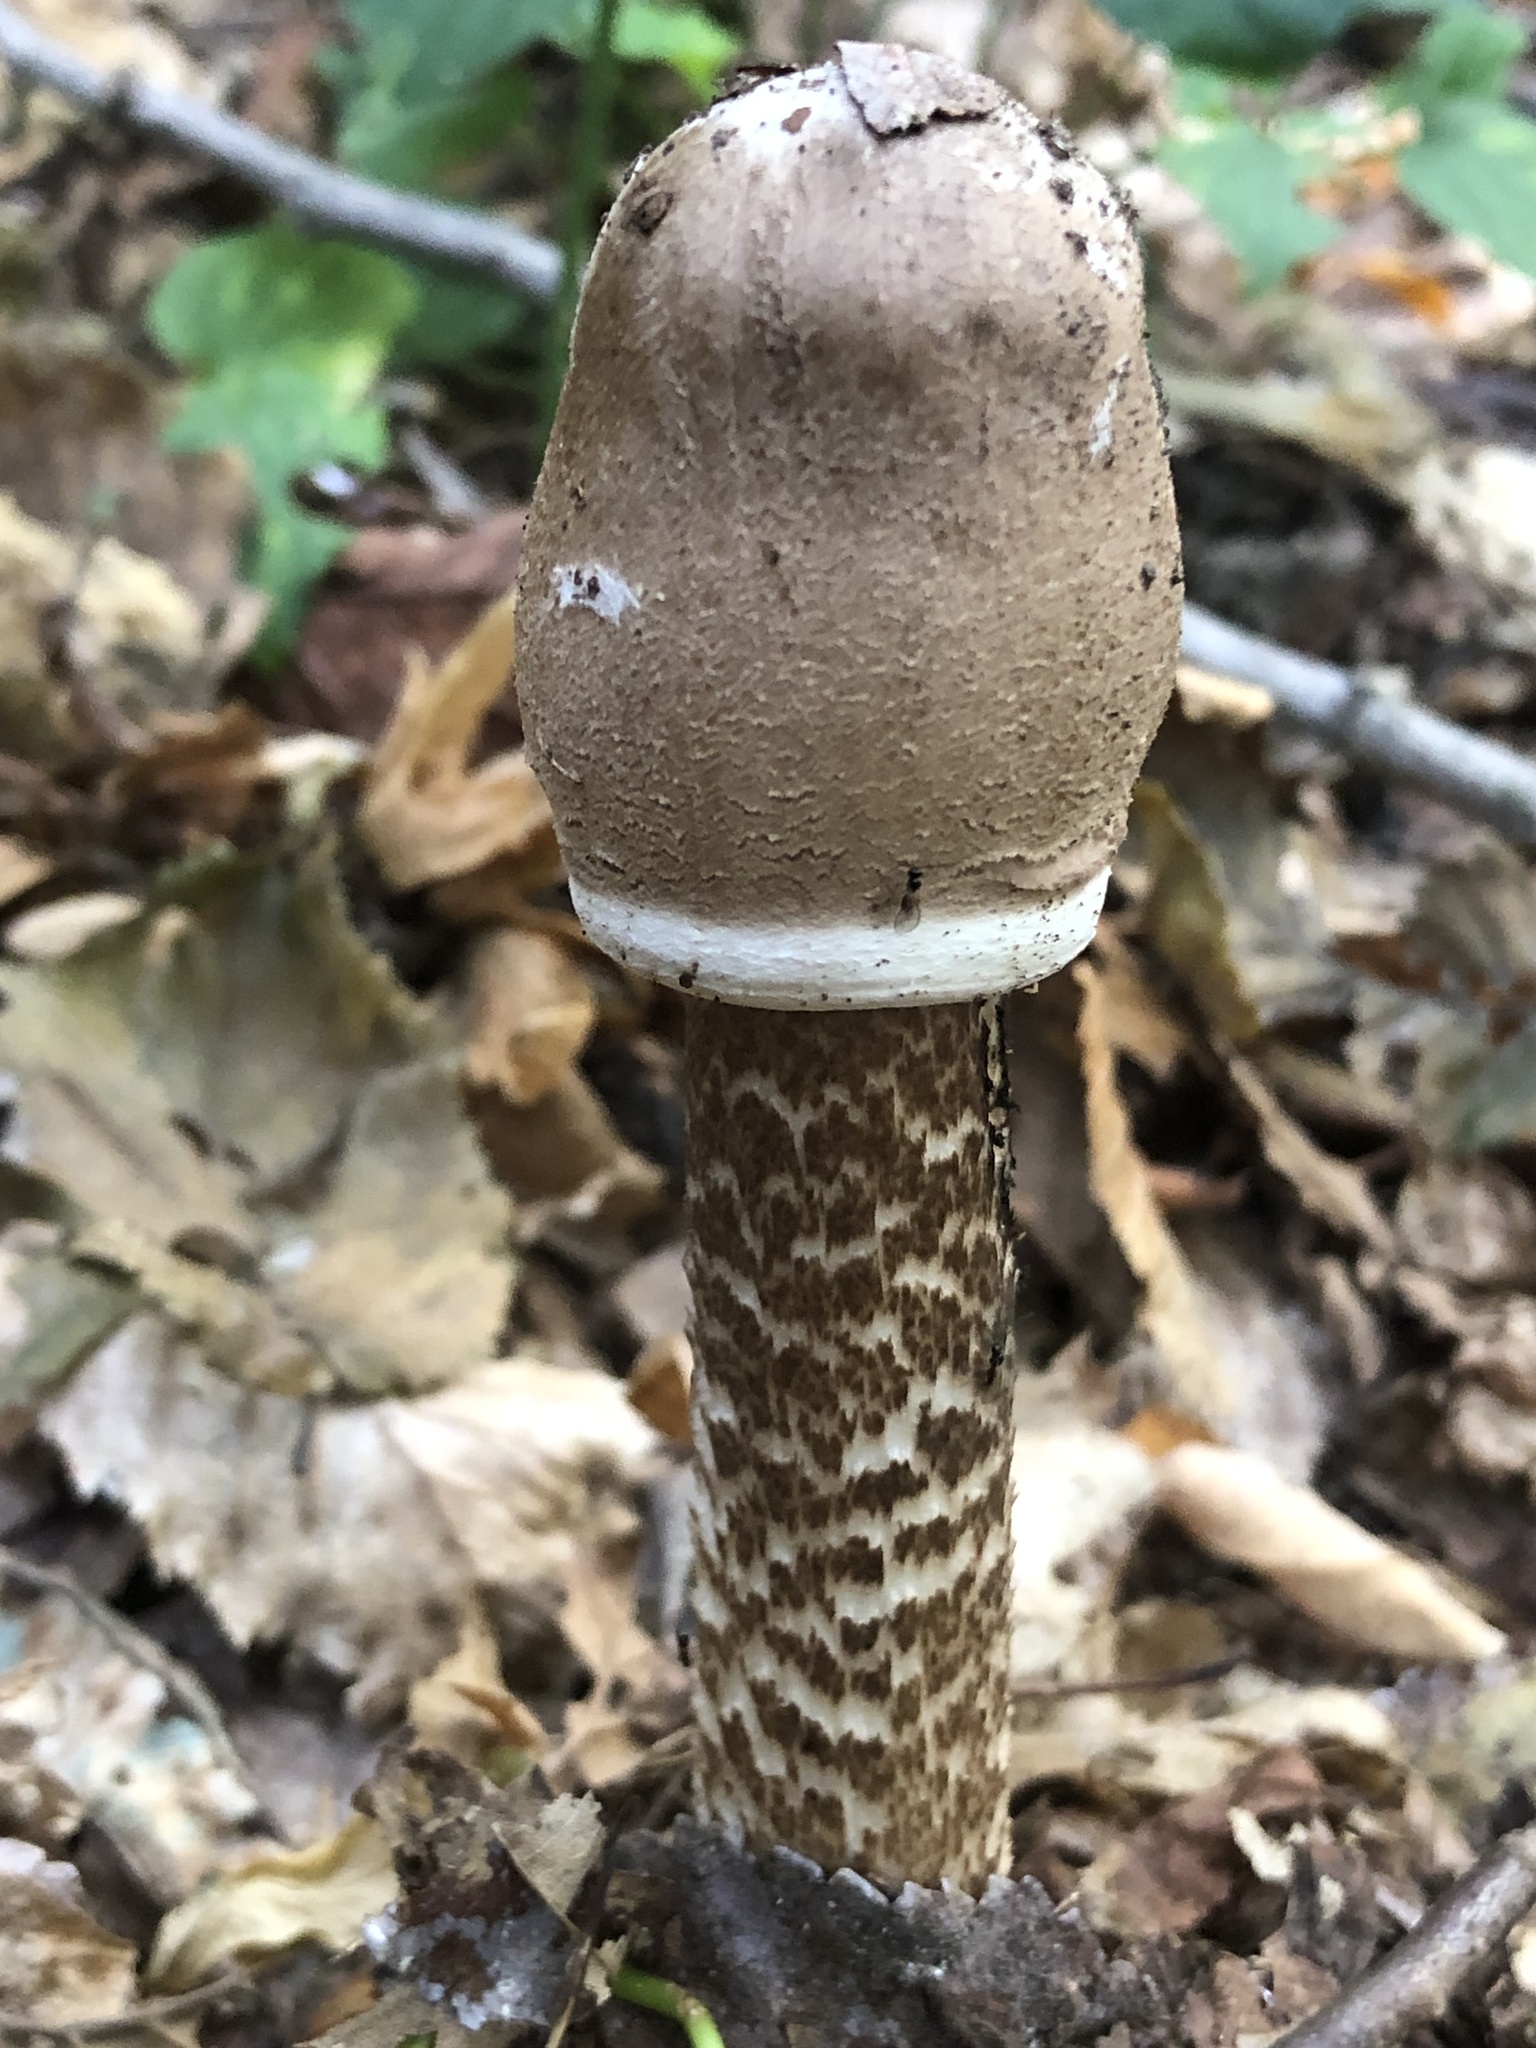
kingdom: Fungi
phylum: Basidiomycota
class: Agaricomycetes
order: Agaricales
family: Agaricaceae
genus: Macrolepiota
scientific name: Macrolepiota procera
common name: Parasol
